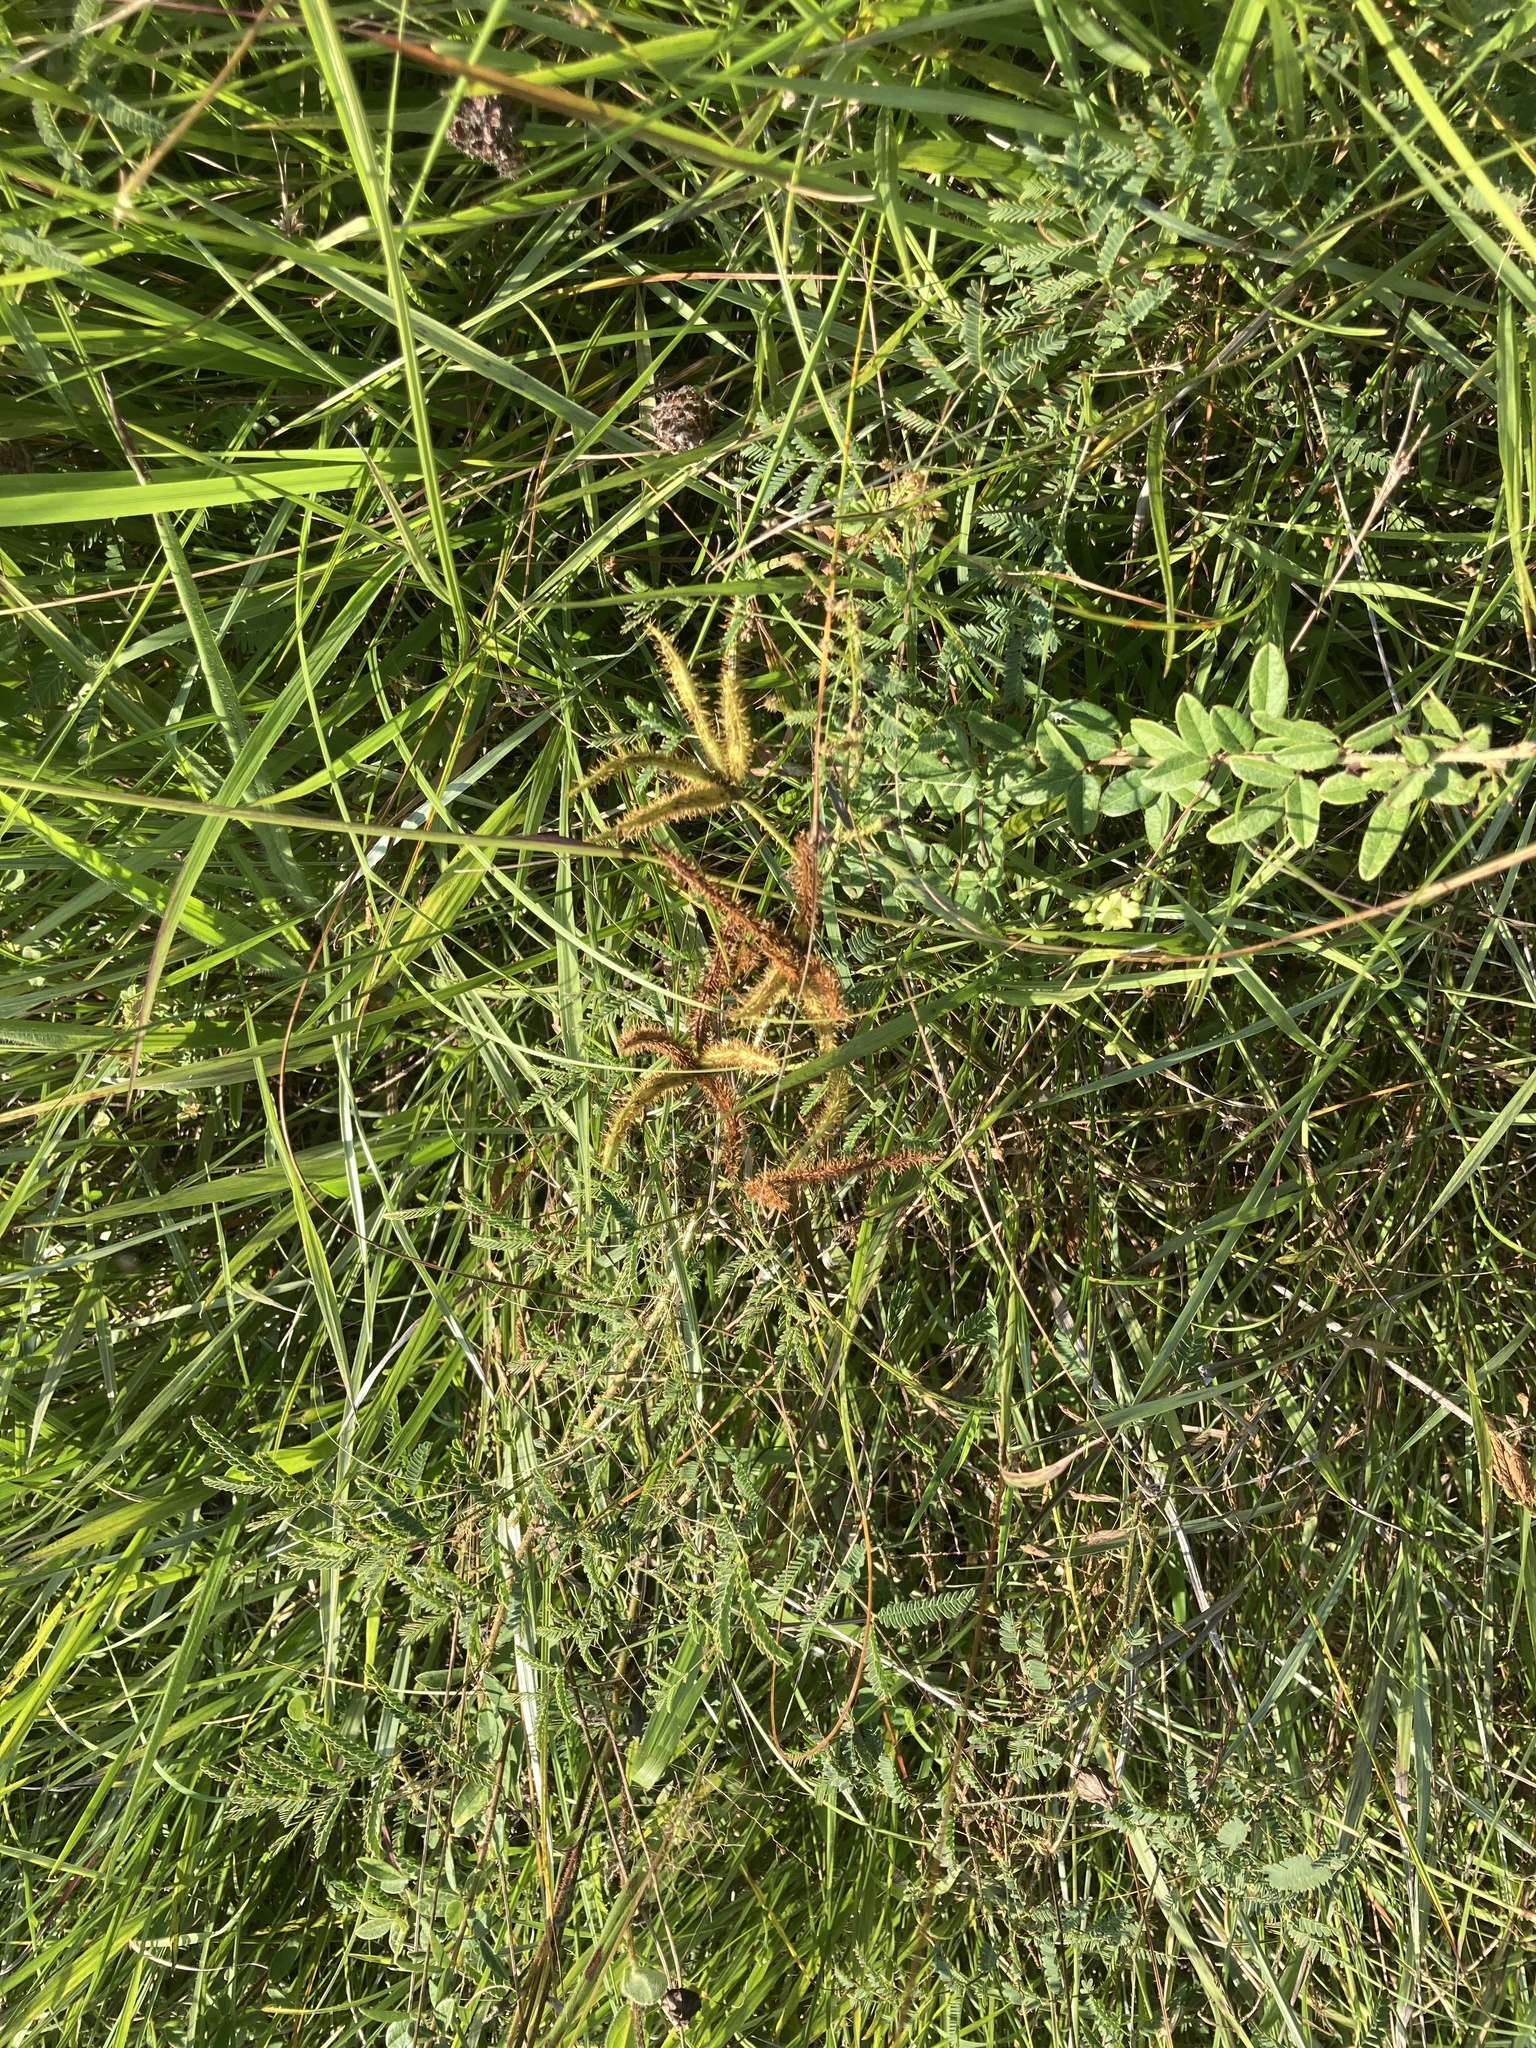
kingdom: Plantae
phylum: Tracheophyta
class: Magnoliopsida
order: Fabales
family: Fabaceae
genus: Mimosa
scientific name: Mimosa quadrivalvis
